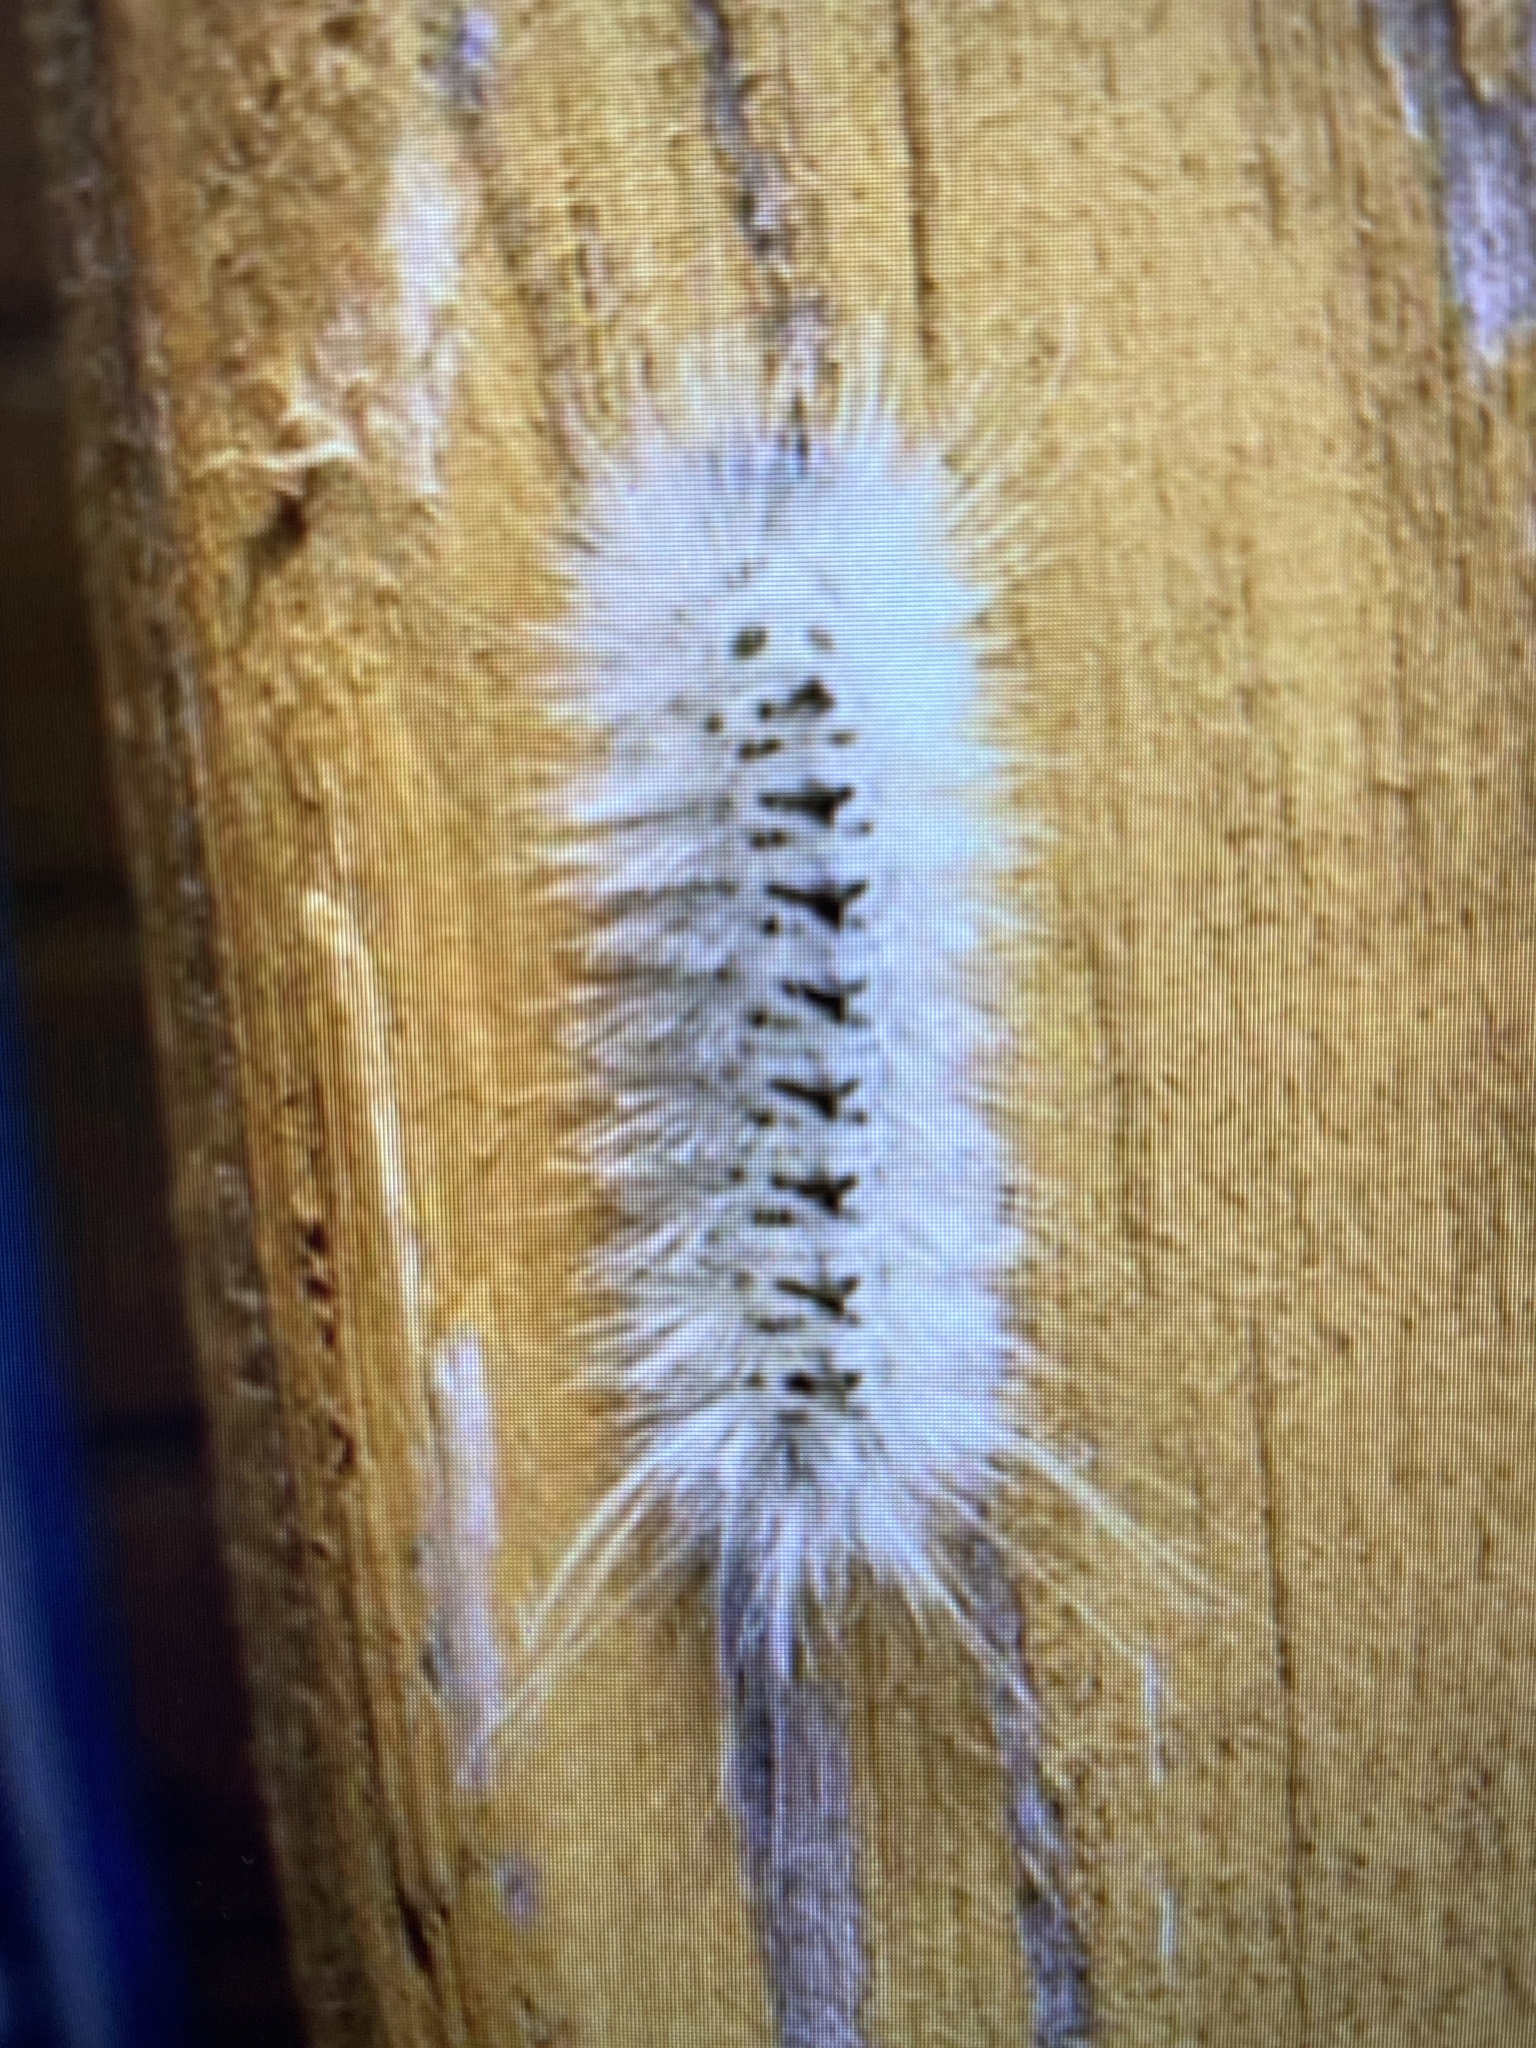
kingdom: Animalia
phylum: Arthropoda
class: Insecta
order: Lepidoptera
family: Erebidae
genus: Lophocampa
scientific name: Lophocampa caryae
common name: Hickory tussock moth
